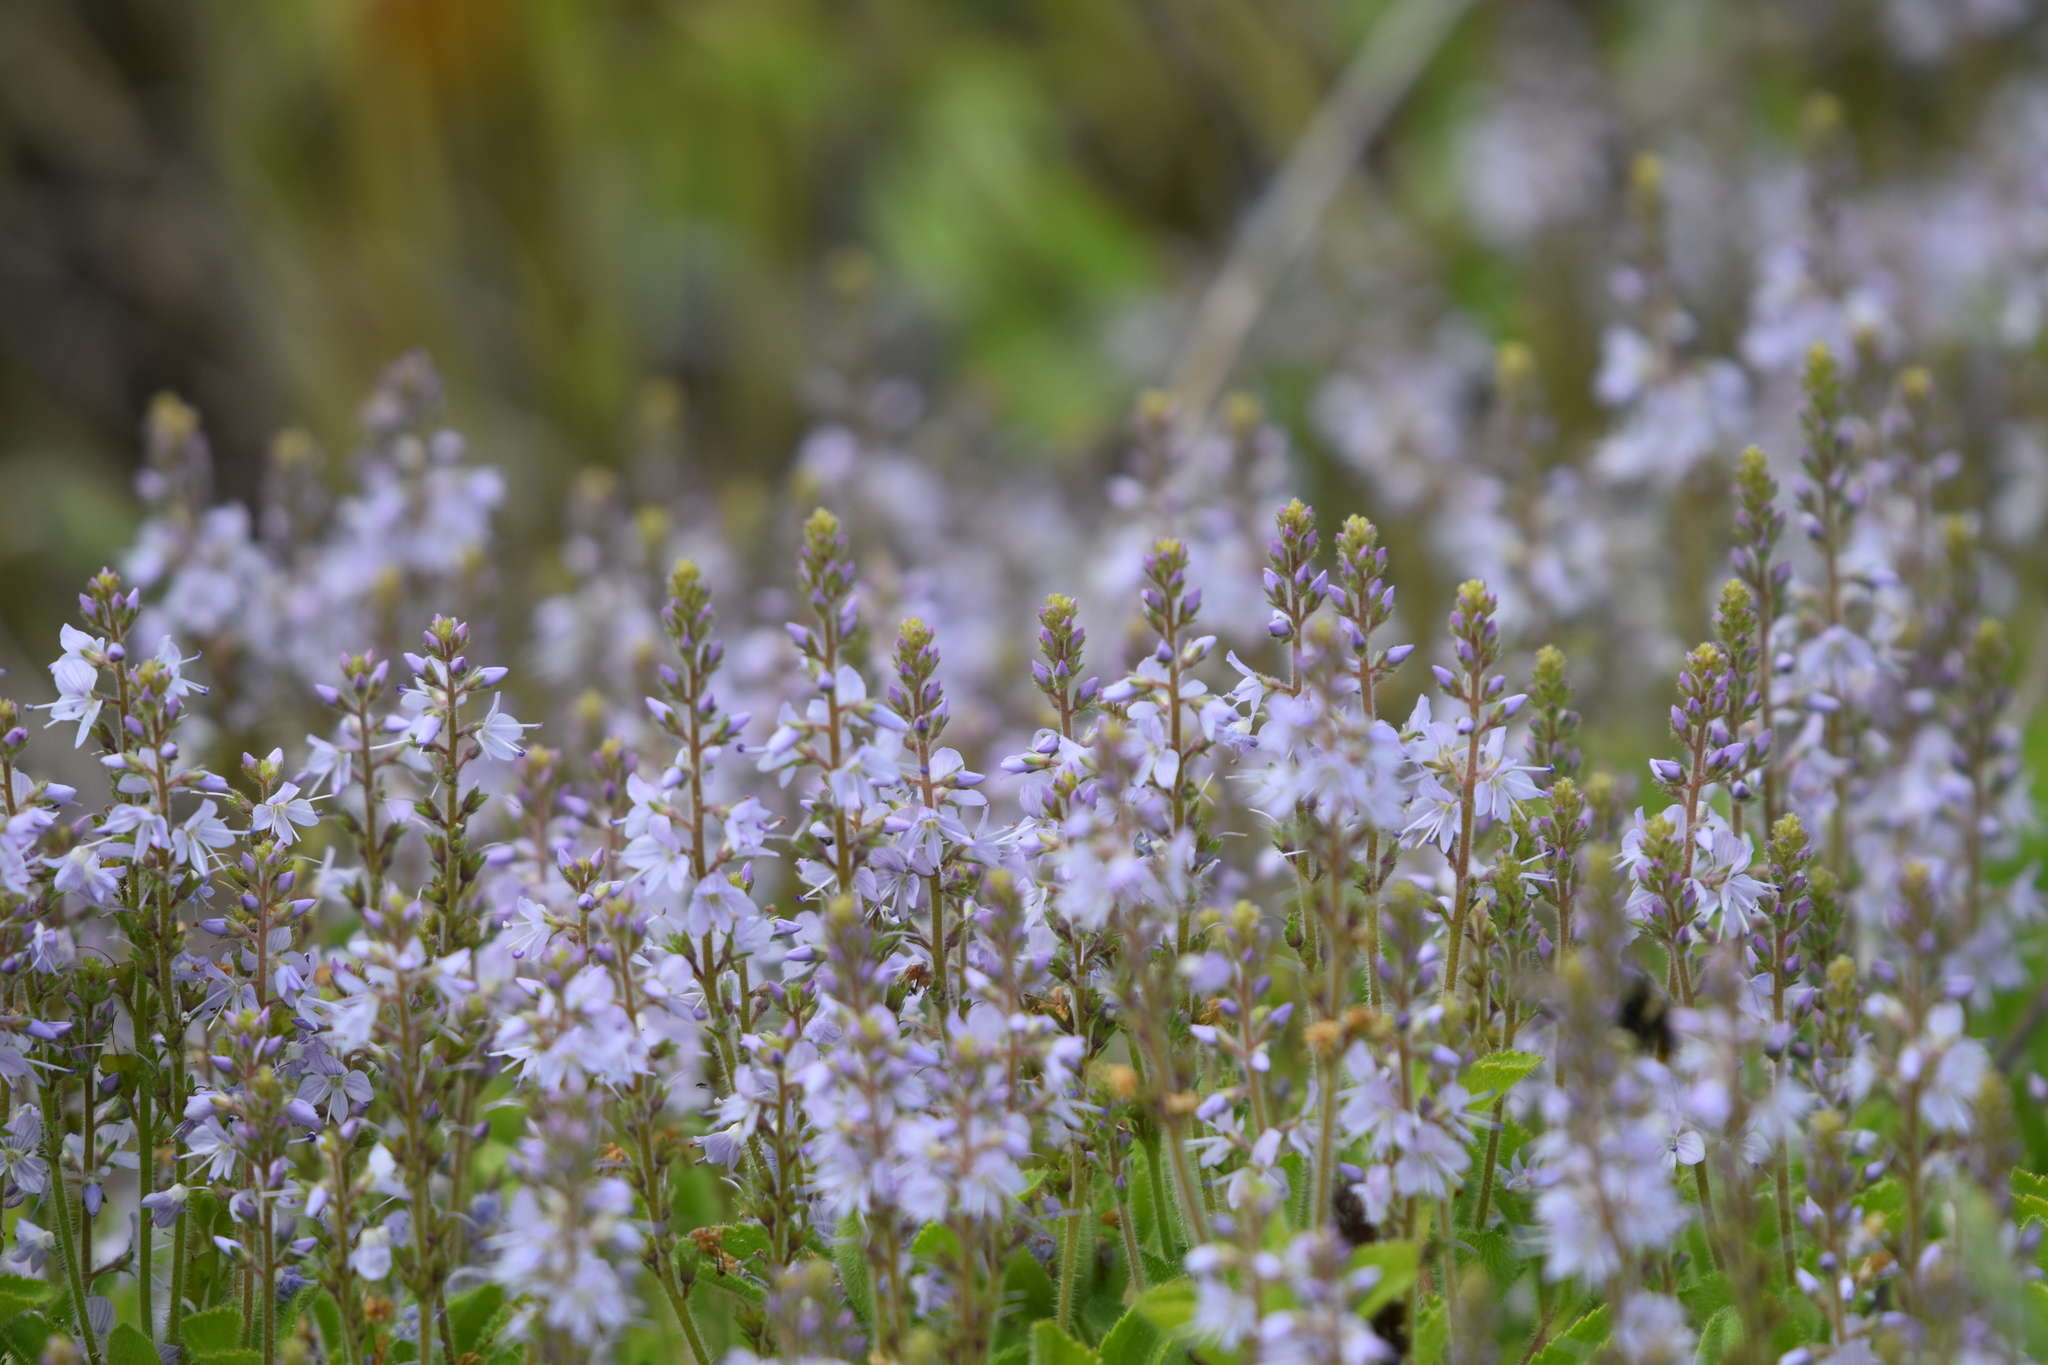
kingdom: Plantae
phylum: Tracheophyta
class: Magnoliopsida
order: Lamiales
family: Plantaginaceae
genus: Veronica
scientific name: Veronica officinalis
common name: Common speedwell
